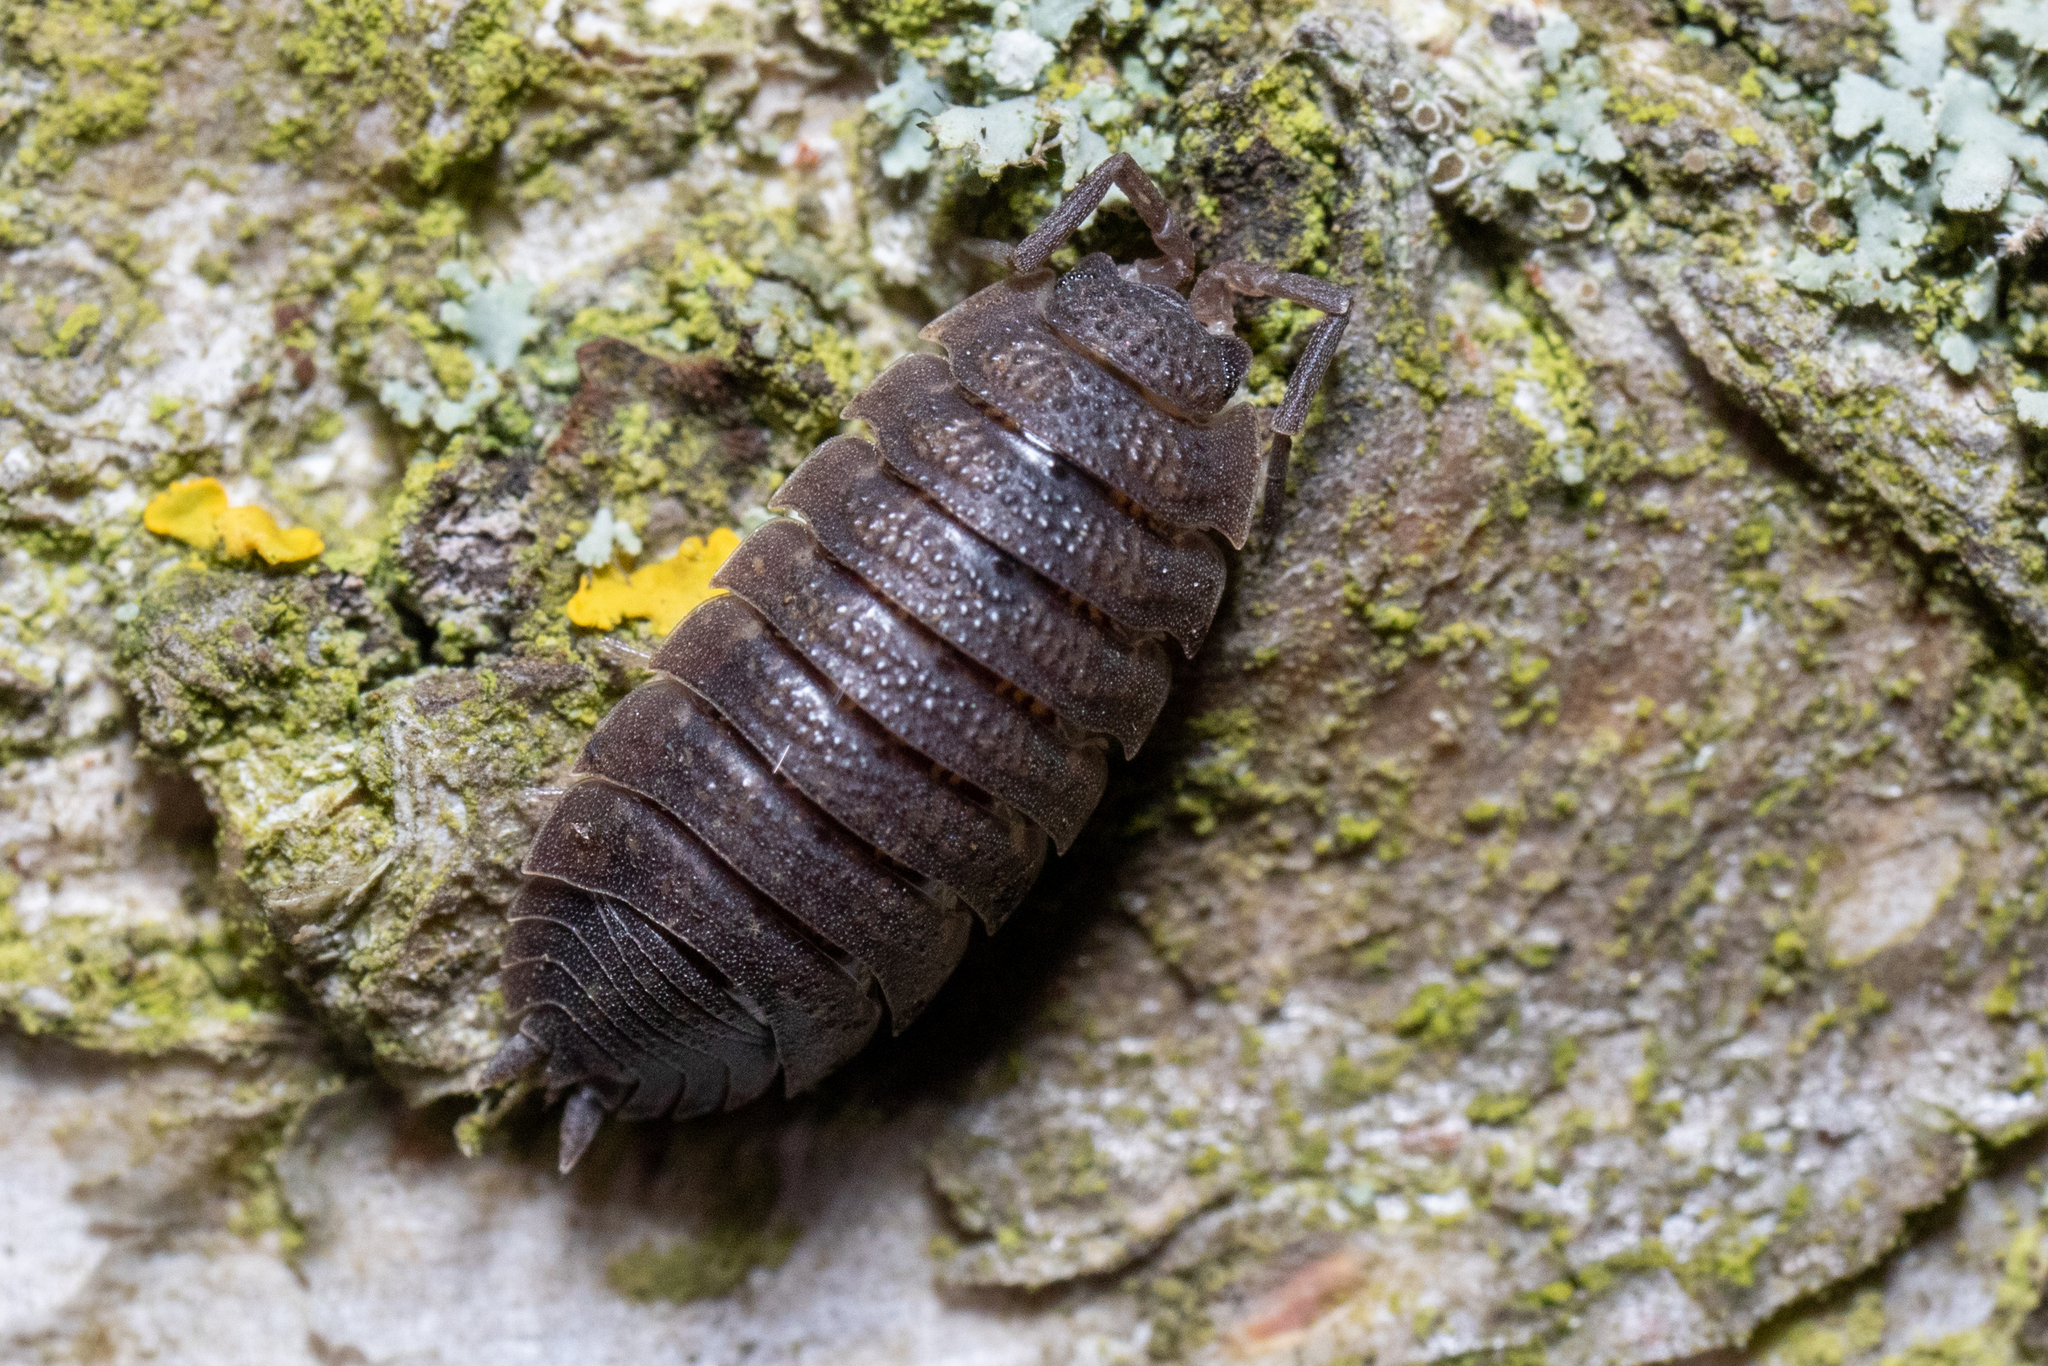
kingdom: Animalia
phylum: Arthropoda
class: Malacostraca
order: Isopoda
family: Porcellionidae
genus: Porcellio
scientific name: Porcellio scaber
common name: Common rough woodlouse
